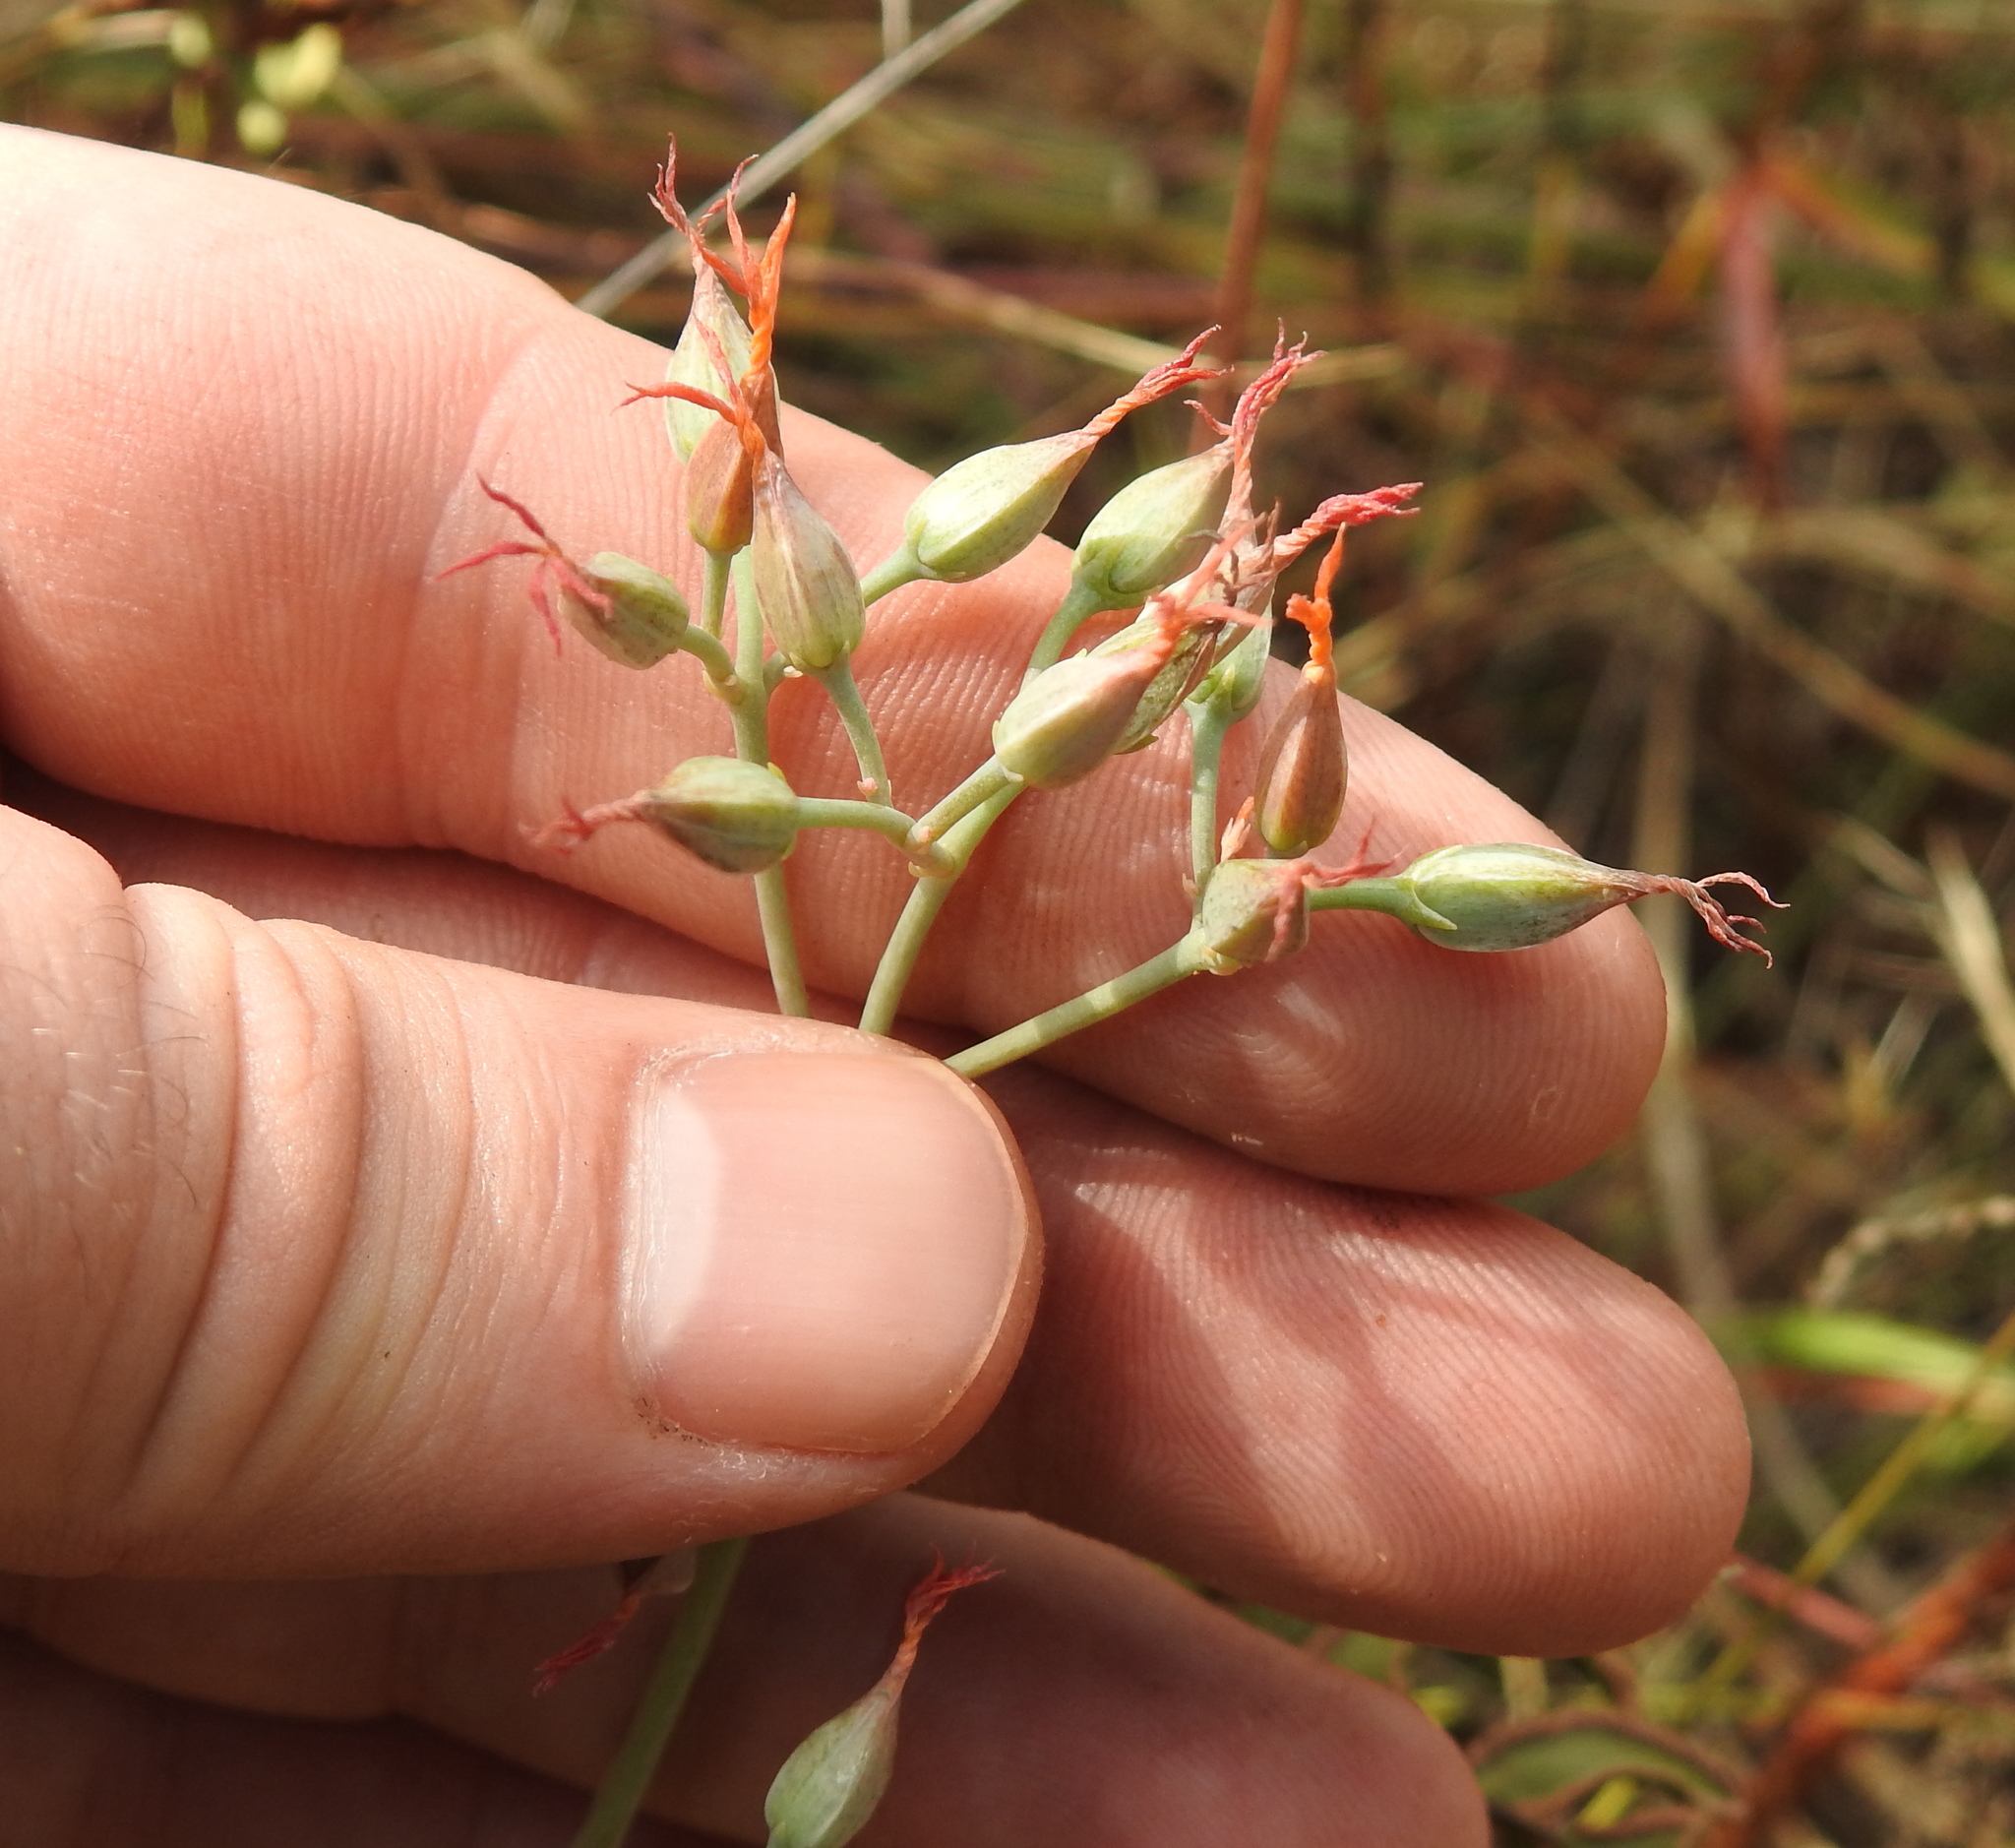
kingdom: Plantae
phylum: Tracheophyta
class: Magnoliopsida
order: Saxifragales
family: Crassulaceae
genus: Kalanchoe
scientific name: Kalanchoe rotundifolia
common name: Common kalanchoe
